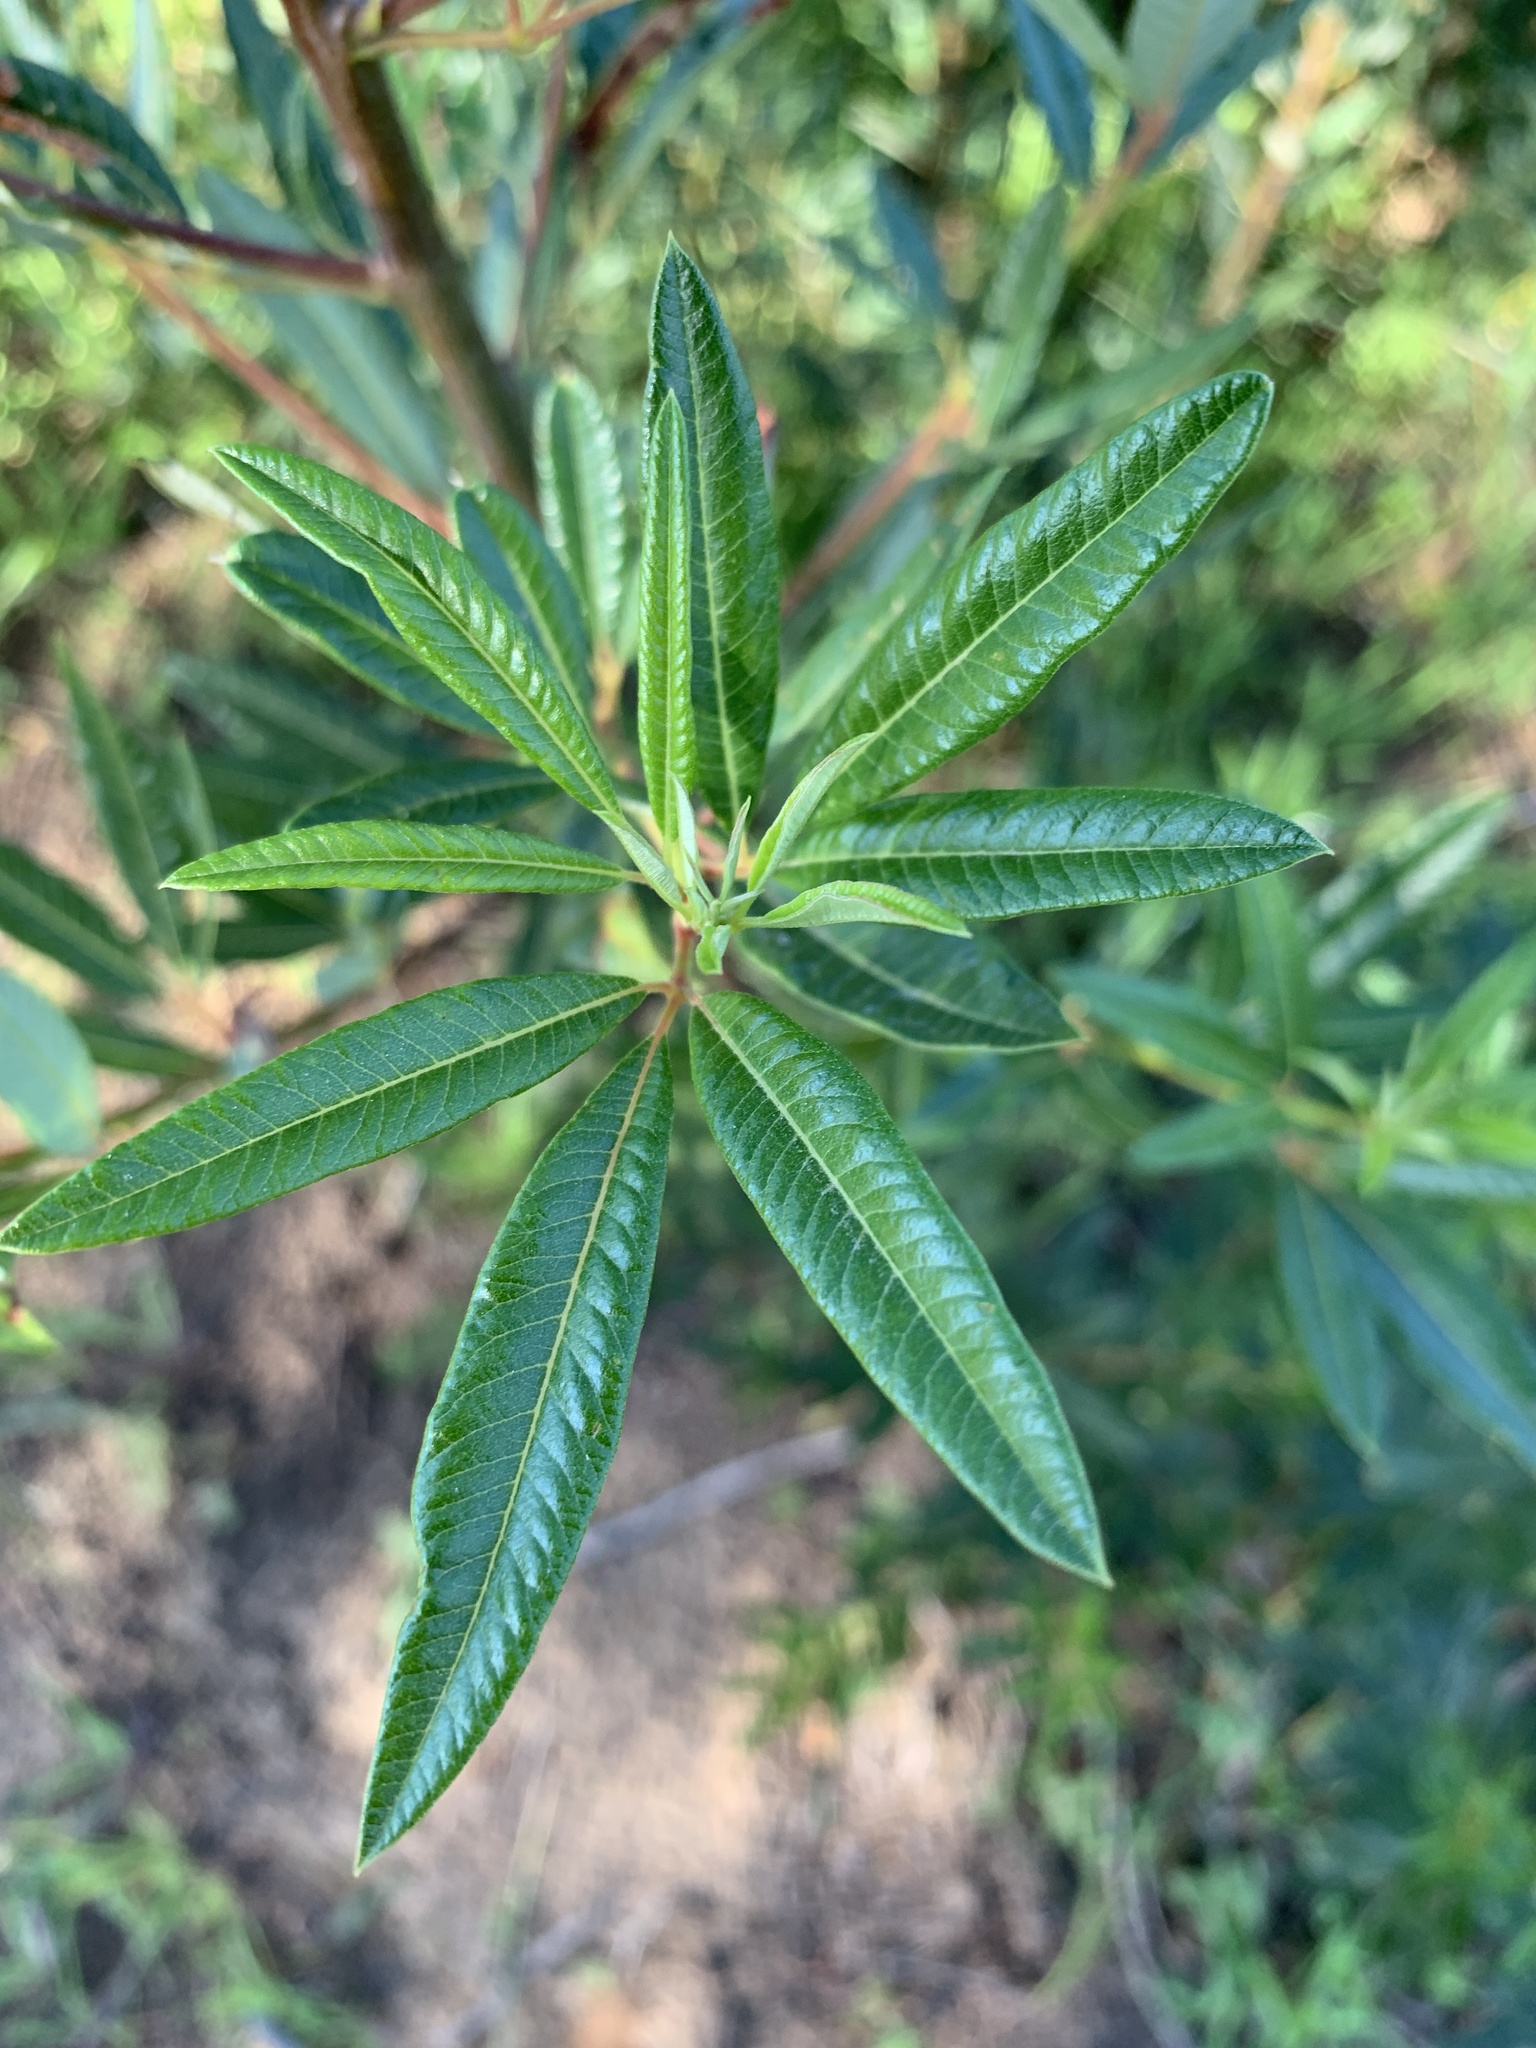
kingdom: Plantae
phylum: Tracheophyta
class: Magnoliopsida
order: Sapindales
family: Anacardiaceae
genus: Searsia
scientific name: Searsia angustifolia
